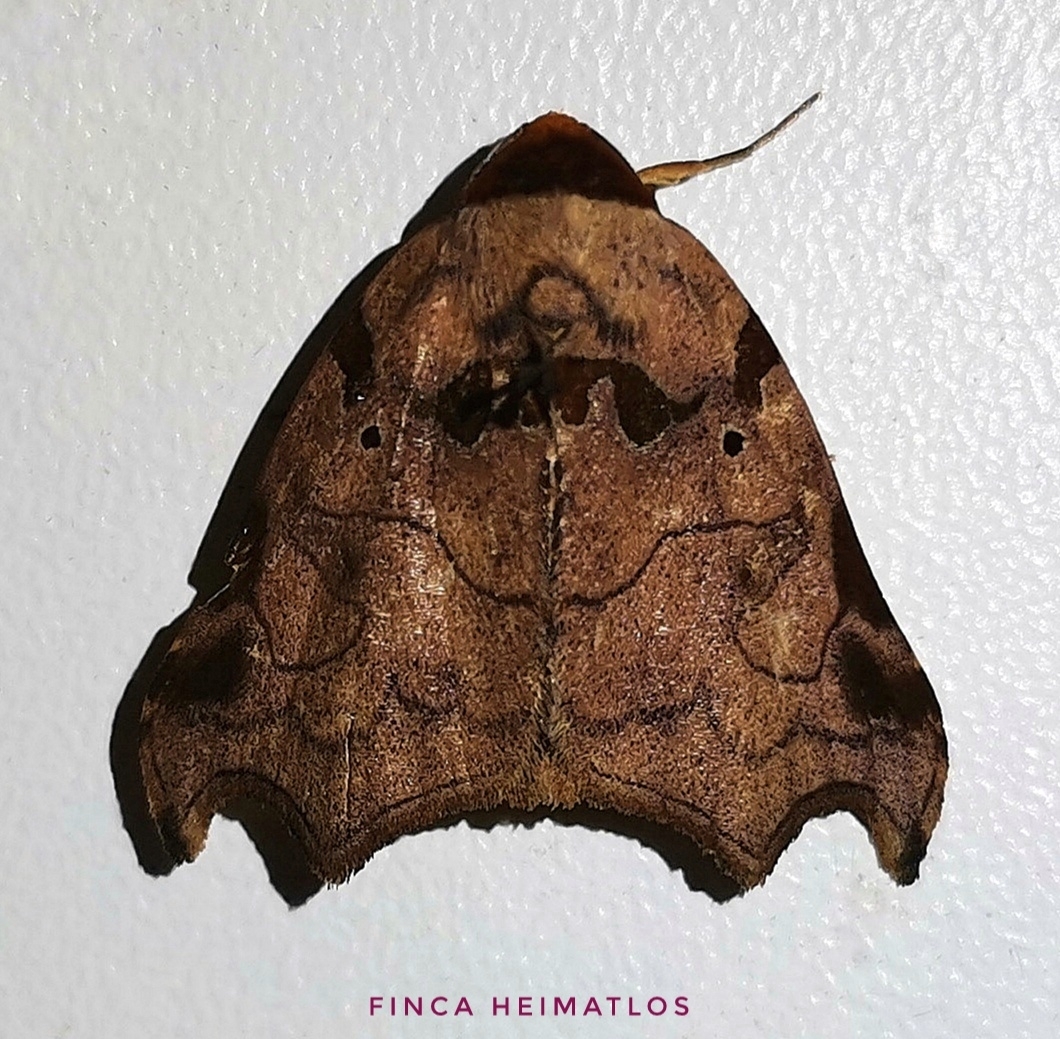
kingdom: Animalia
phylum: Arthropoda
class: Insecta
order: Lepidoptera
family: Erebidae
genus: Lephana
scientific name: Lephana tetraphorella
